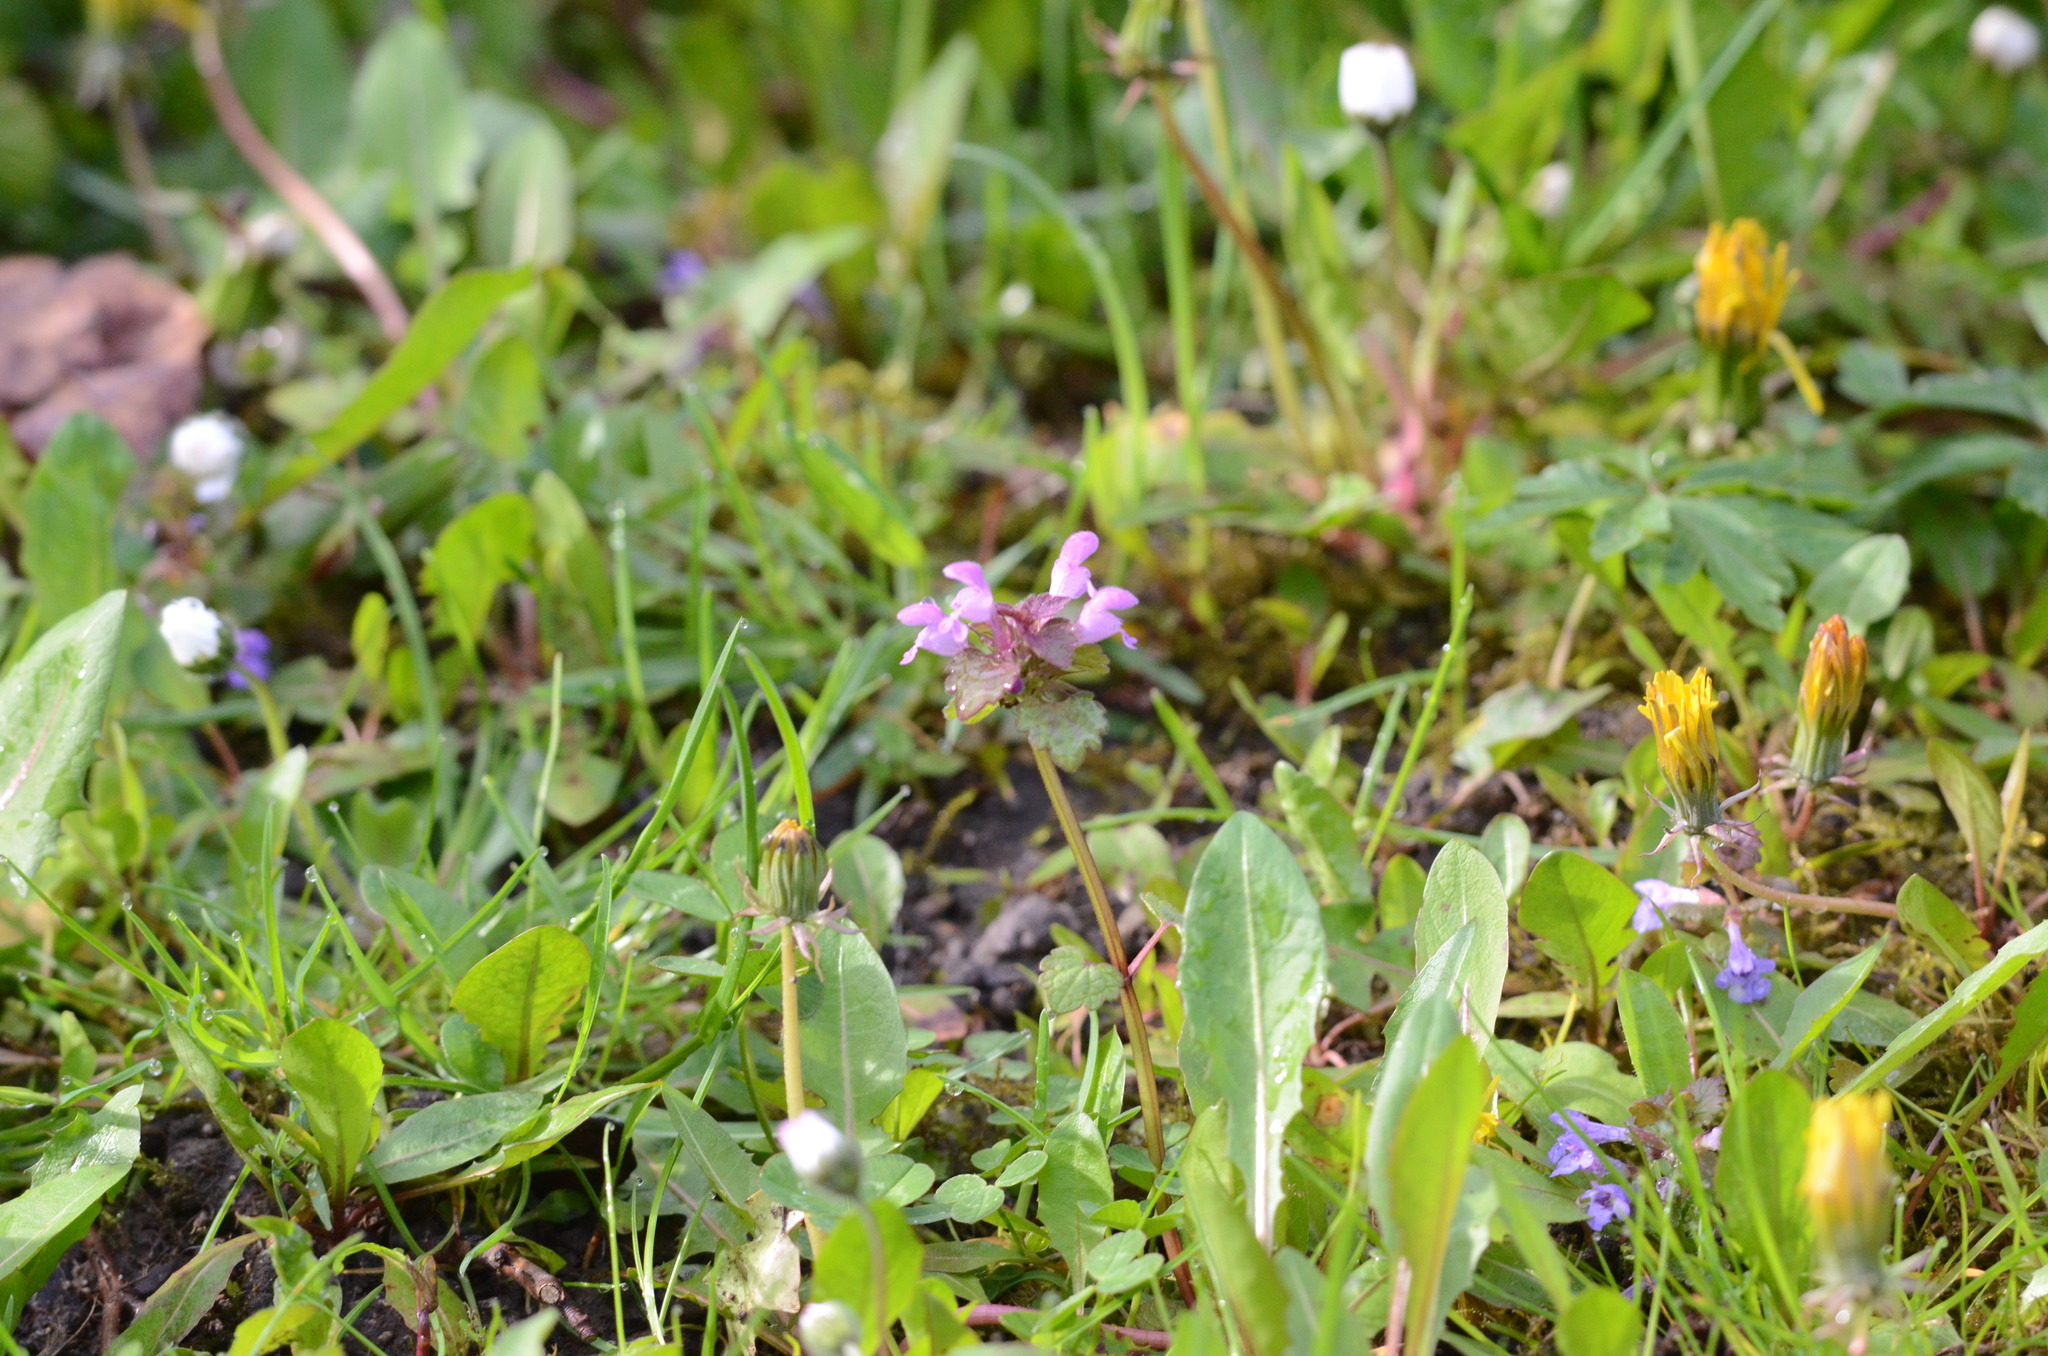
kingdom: Plantae
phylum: Tracheophyta
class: Magnoliopsida
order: Lamiales
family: Lamiaceae
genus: Lamium
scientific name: Lamium purpureum
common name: Red dead-nettle
